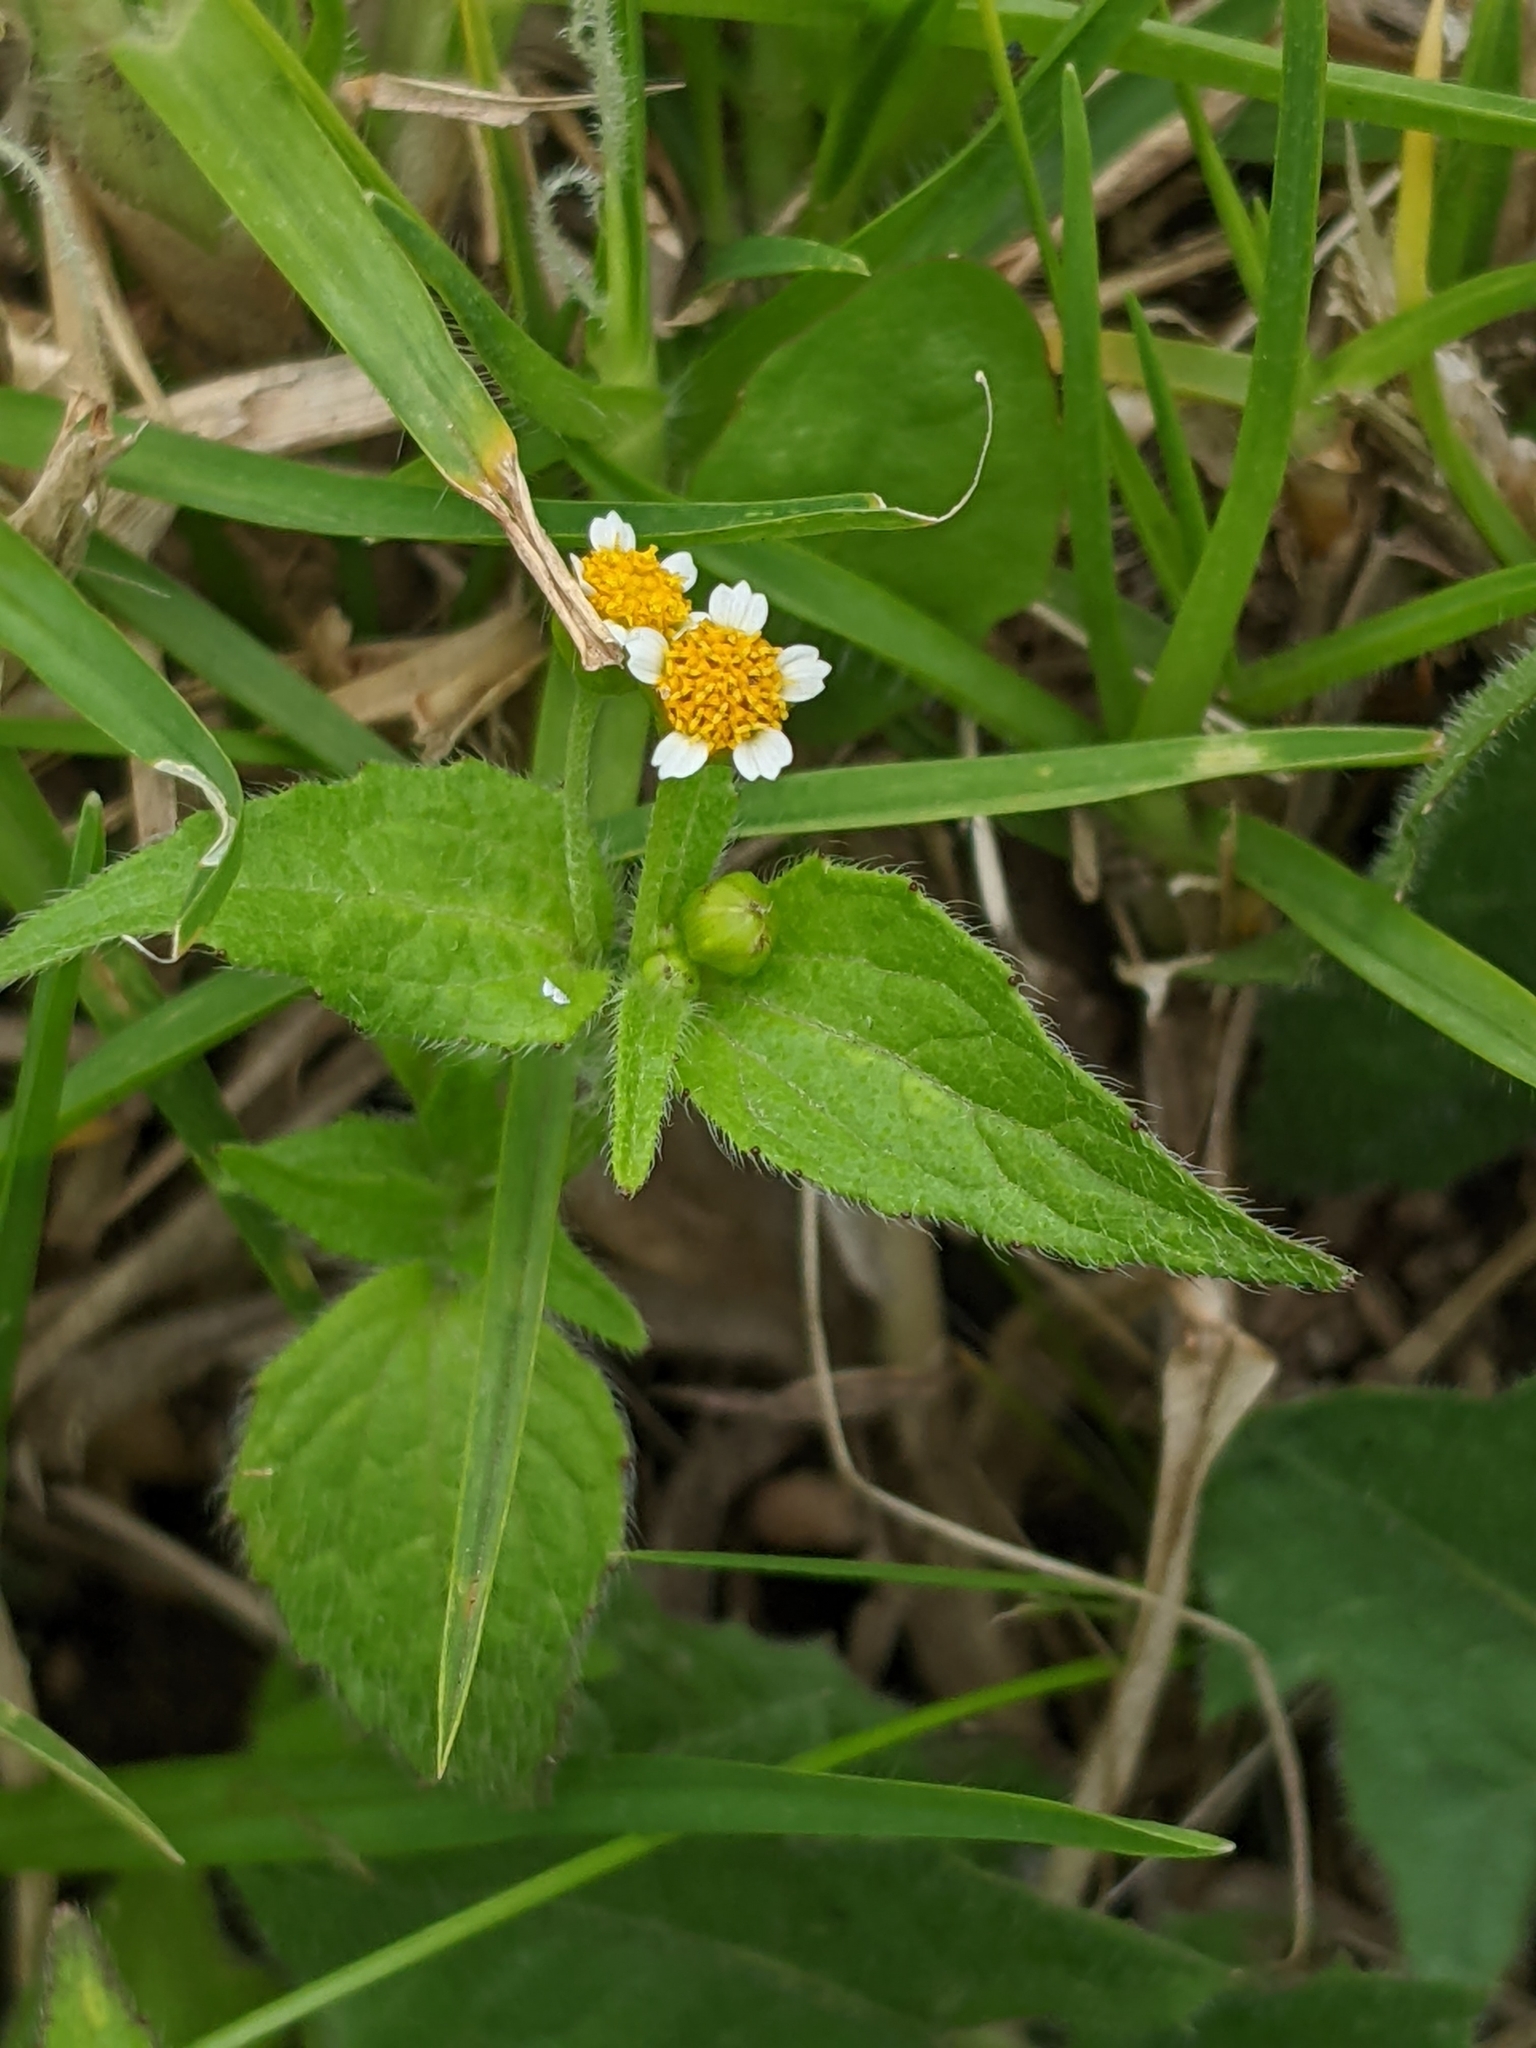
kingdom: Plantae
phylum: Tracheophyta
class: Magnoliopsida
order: Asterales
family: Asteraceae
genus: Galinsoga
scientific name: Galinsoga parviflora
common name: Gallant soldier
